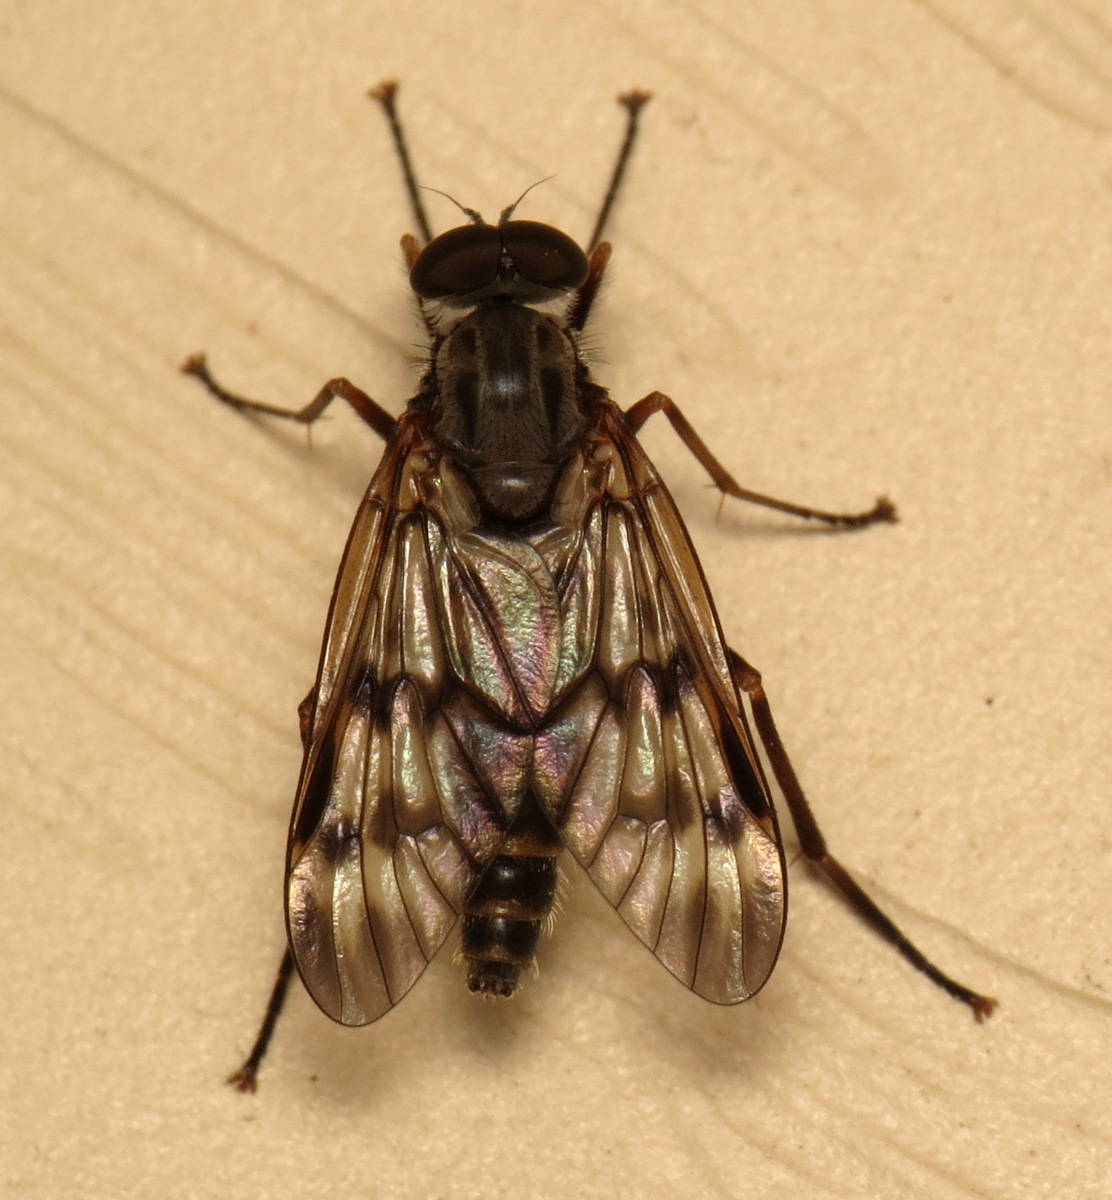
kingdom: Animalia
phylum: Arthropoda
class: Insecta
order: Diptera
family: Rhagionidae
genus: Rhagio
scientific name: Rhagio mystaceus
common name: Common snipe fly
